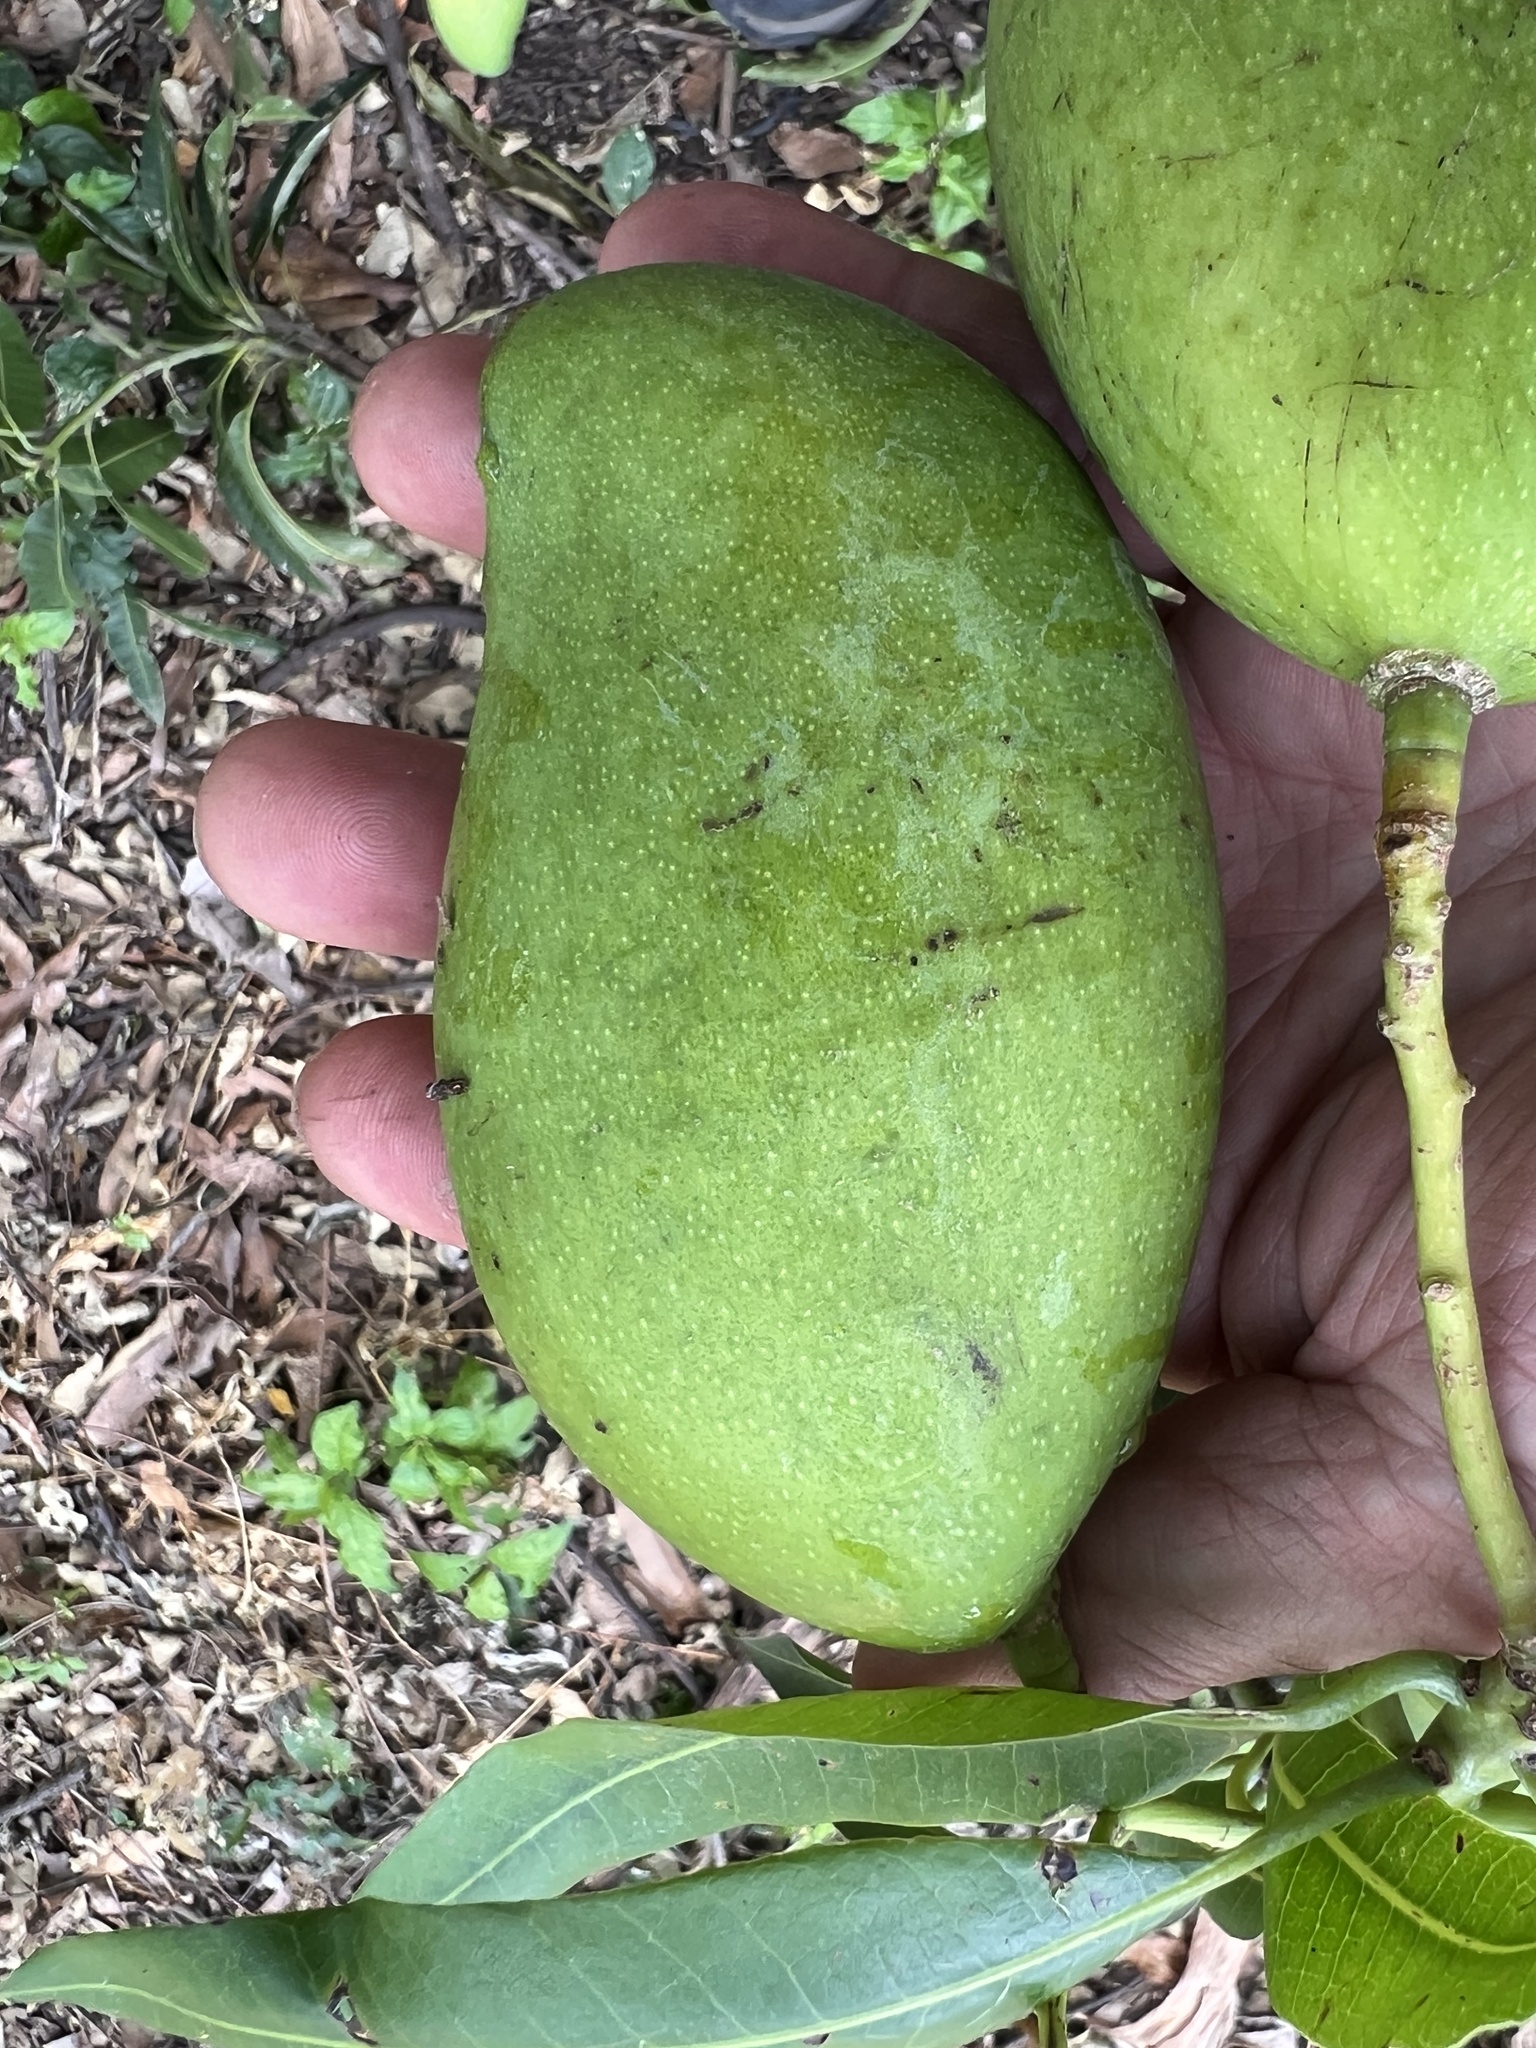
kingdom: Plantae
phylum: Tracheophyta
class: Magnoliopsida
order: Sapindales
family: Anacardiaceae
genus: Mangifera
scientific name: Mangifera indica
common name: Mango
